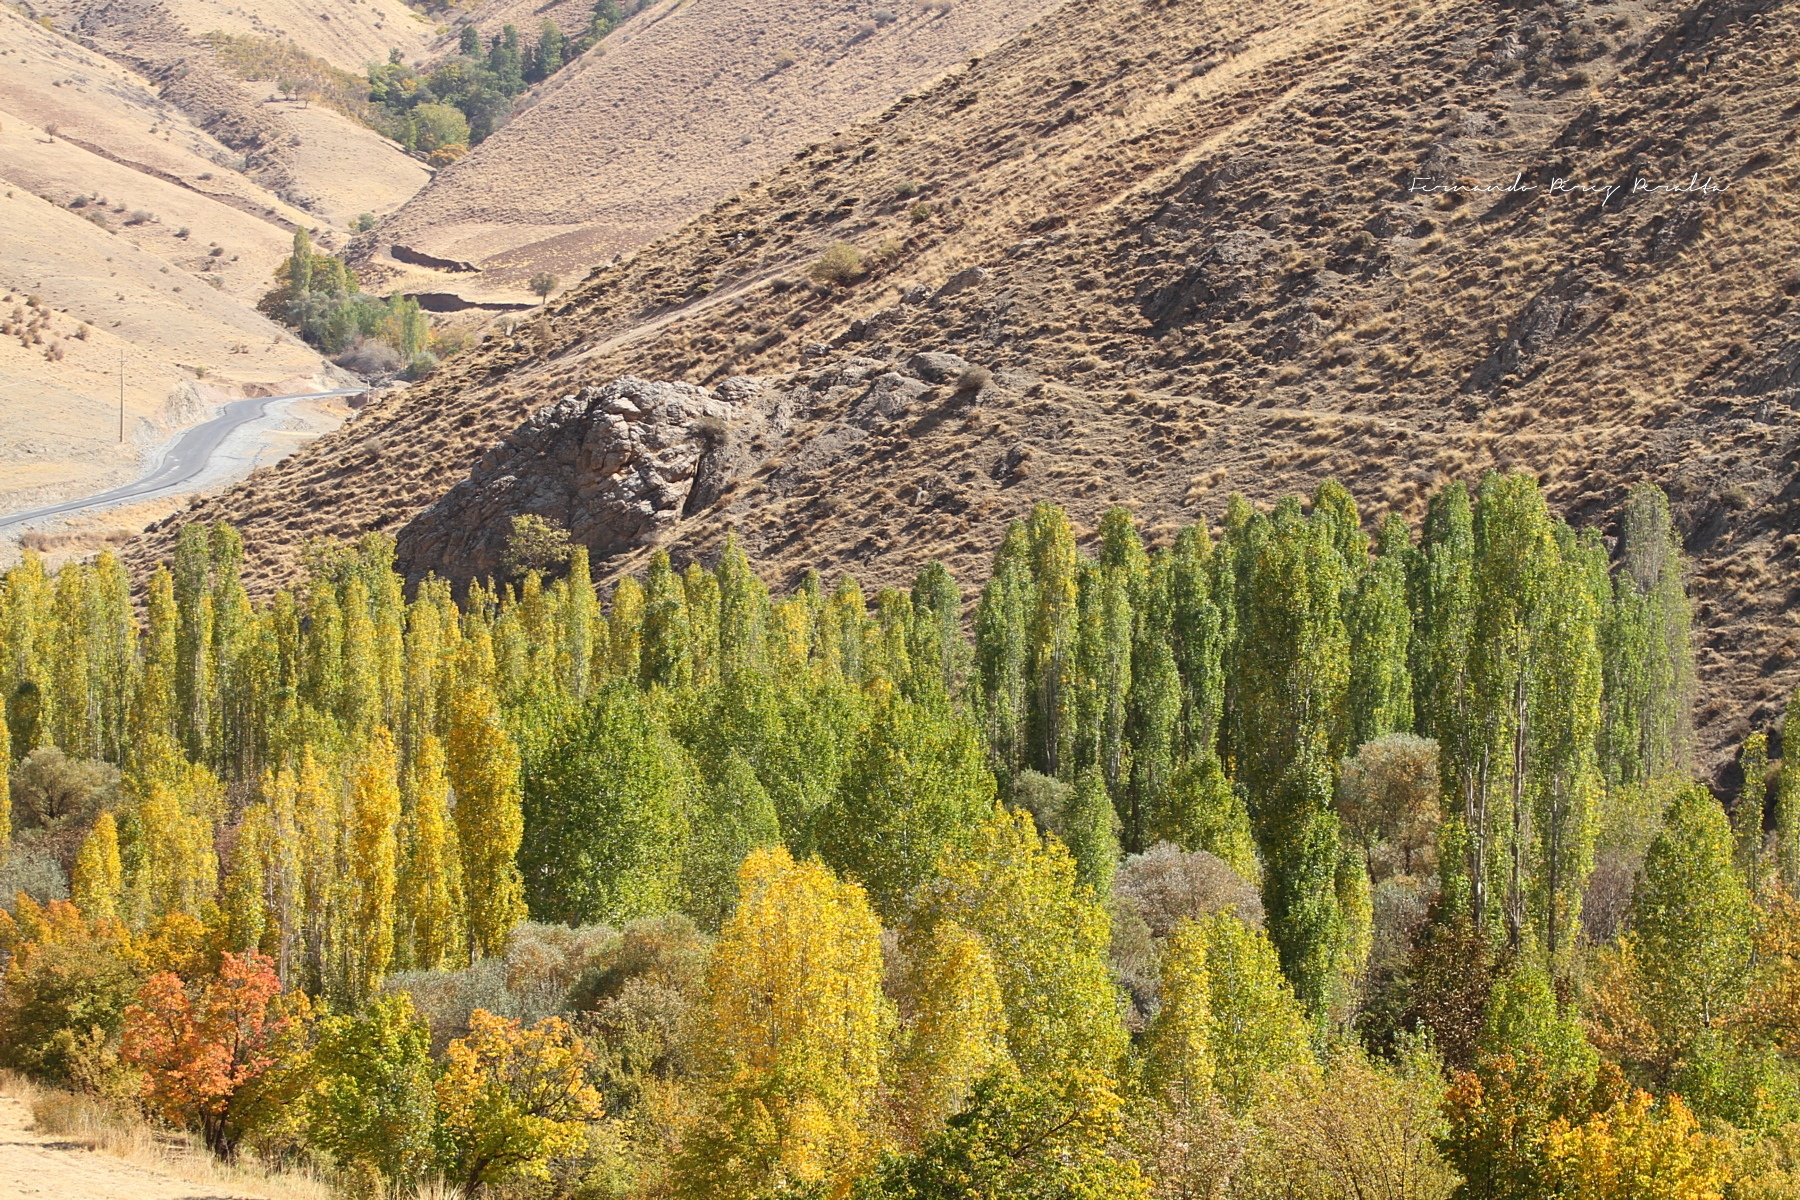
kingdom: Plantae
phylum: Tracheophyta
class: Magnoliopsida
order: Malpighiales
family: Salicaceae
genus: Populus
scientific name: Populus nigra
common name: Black poplar
